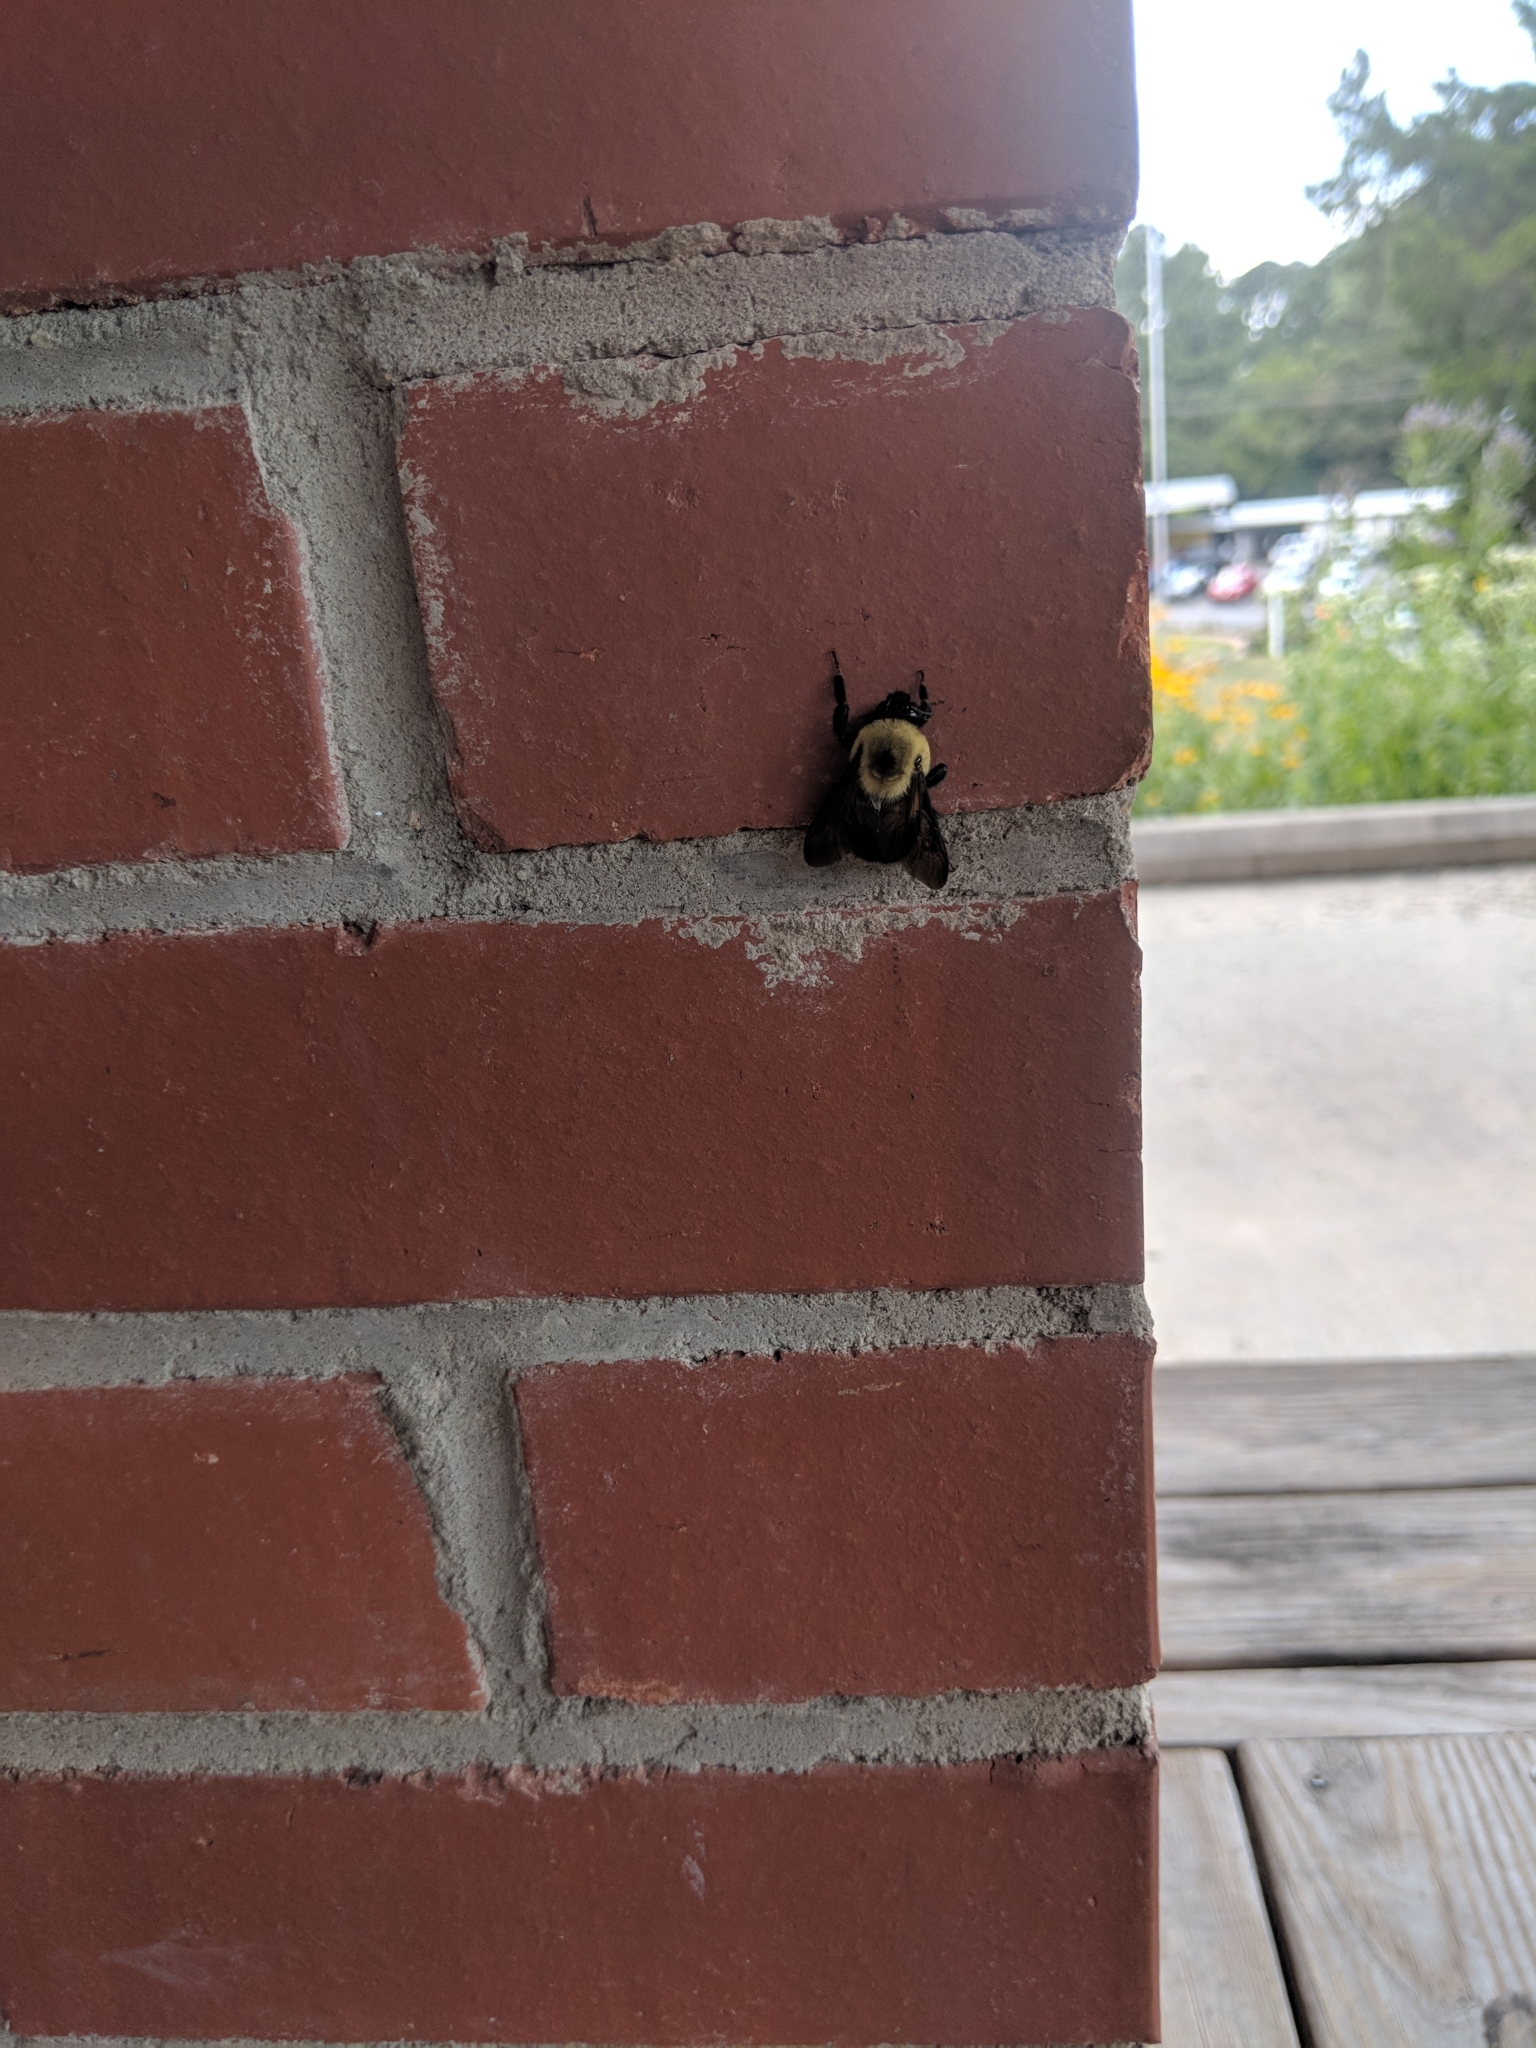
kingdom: Animalia
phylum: Arthropoda
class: Insecta
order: Hymenoptera
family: Apidae
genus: Bombus
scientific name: Bombus griseocollis
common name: Brown-belted bumble bee
